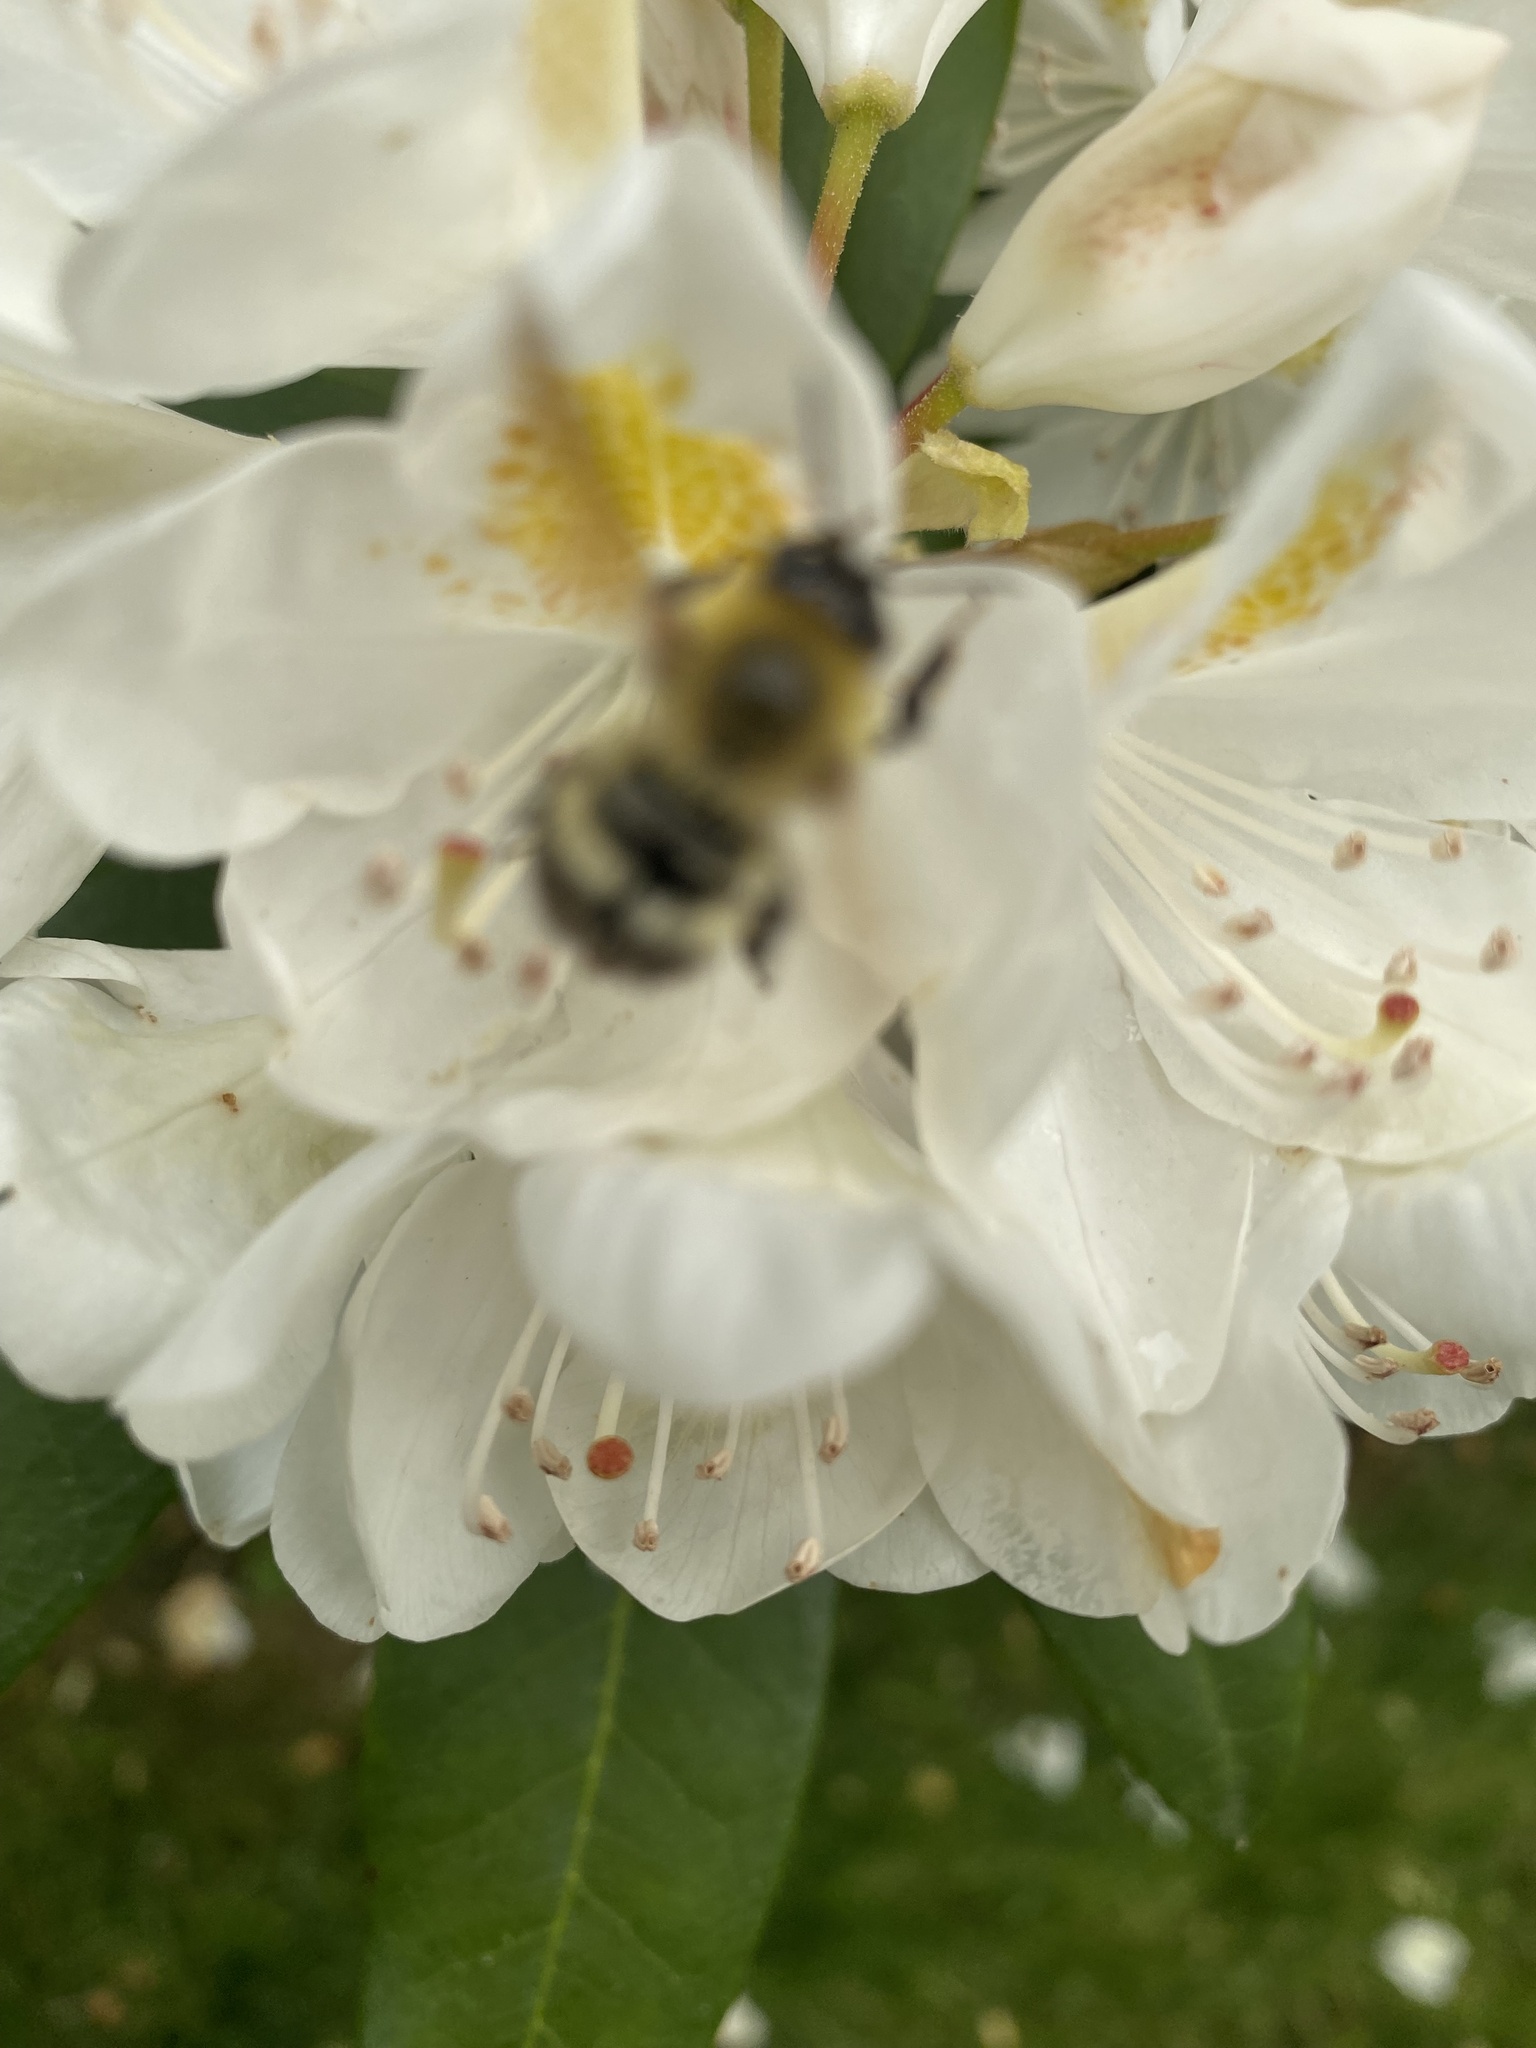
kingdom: Animalia
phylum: Arthropoda
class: Insecta
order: Hymenoptera
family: Apidae
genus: Bombus
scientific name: Bombus perplexus
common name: Confusing bumble bee
